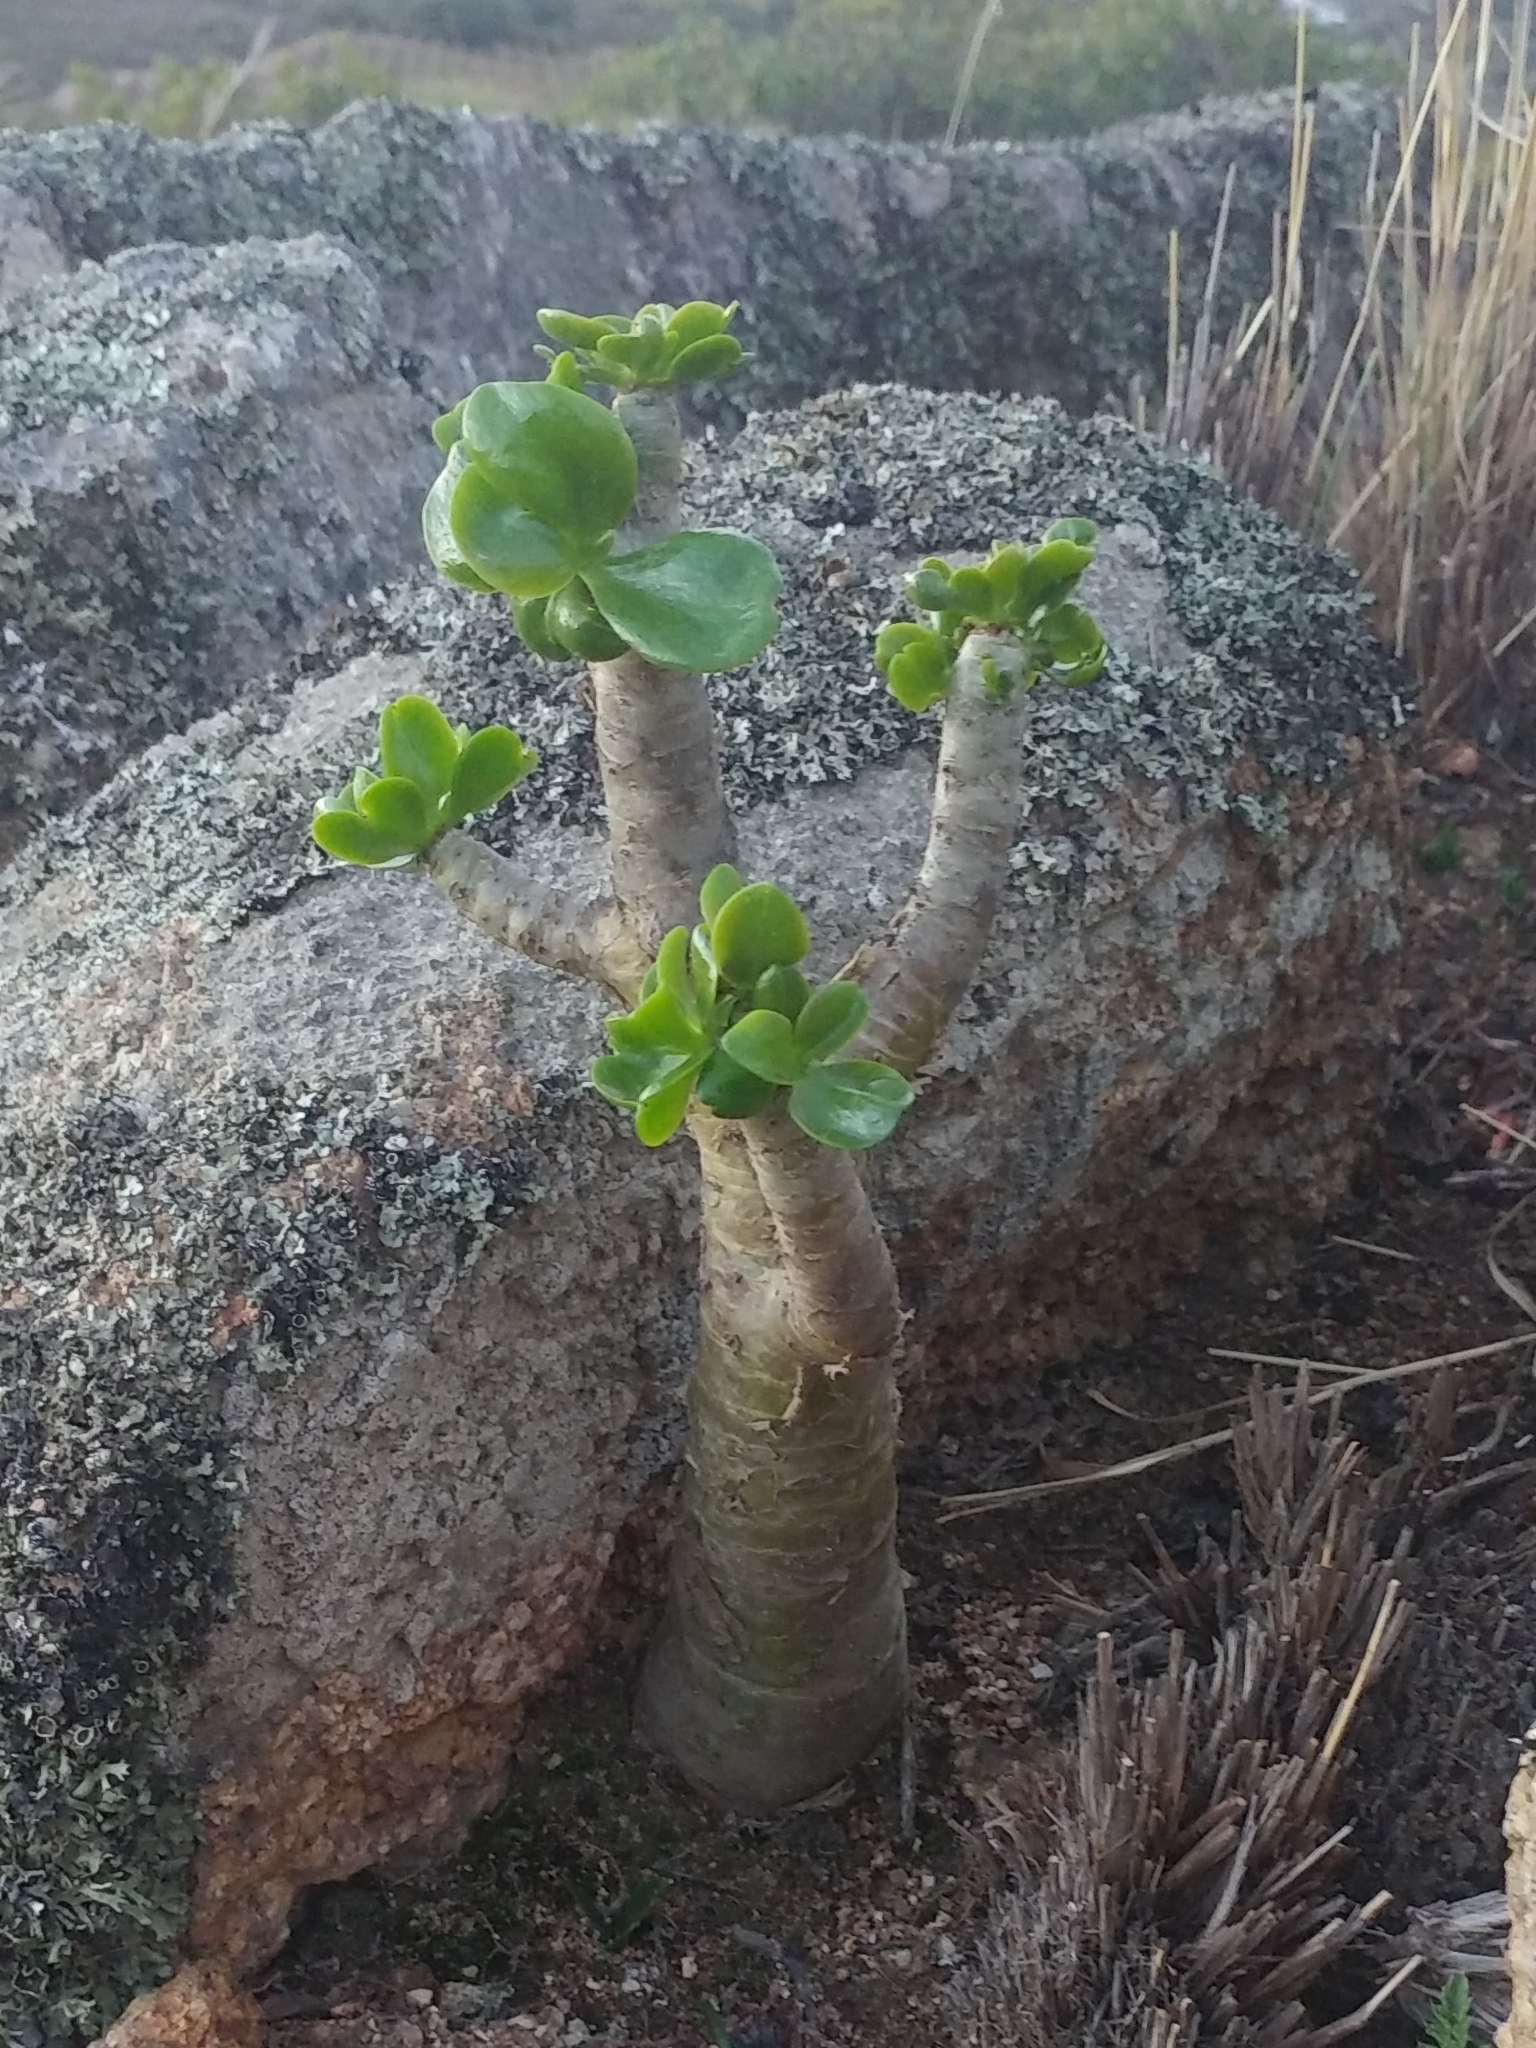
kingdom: Plantae
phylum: Tracheophyta
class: Magnoliopsida
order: Saxifragales
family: Crassulaceae
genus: Tylecodon
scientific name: Tylecodon paniculatus
